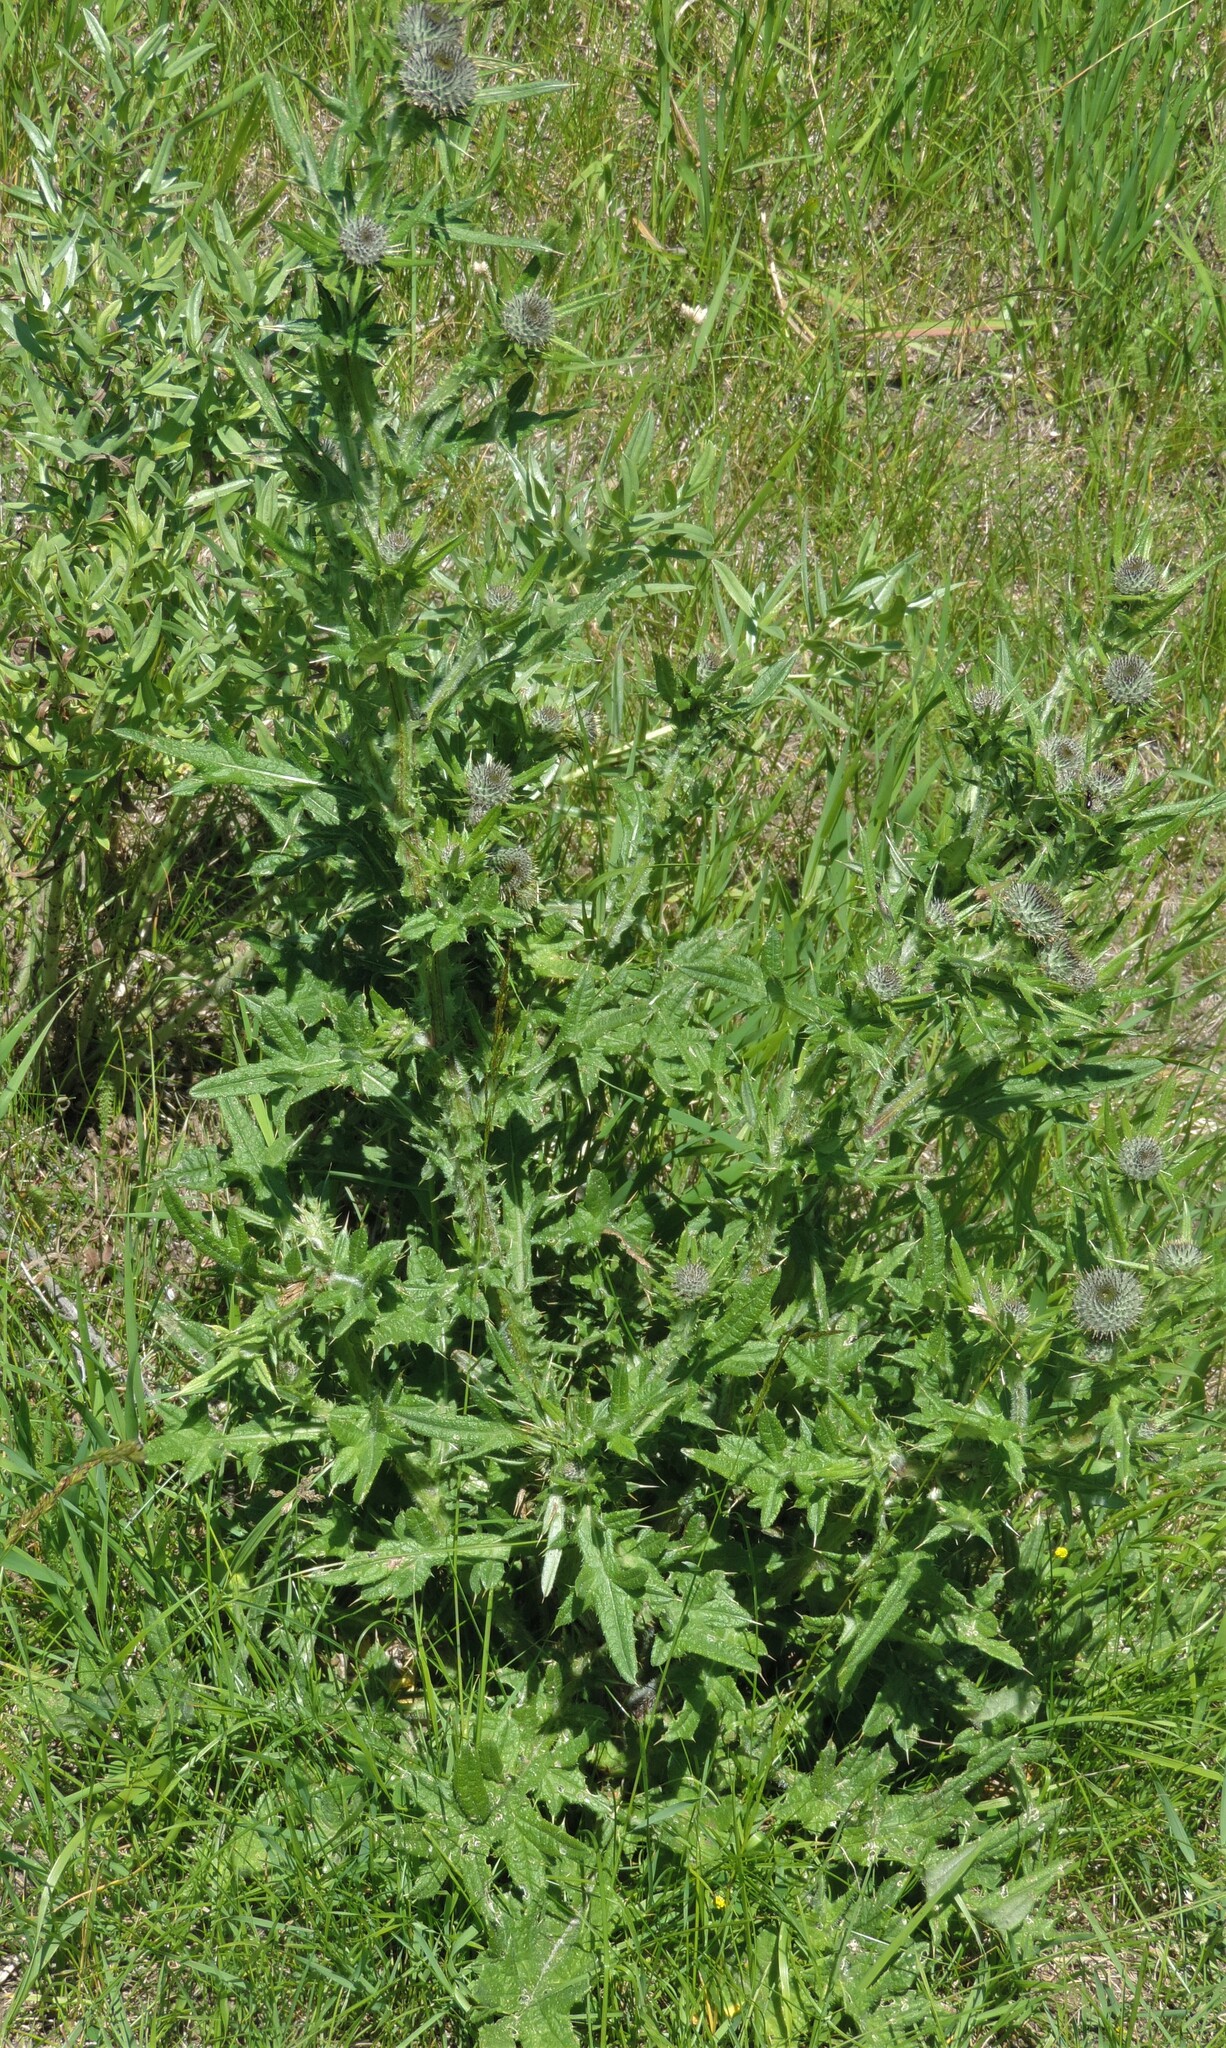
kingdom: Plantae
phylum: Tracheophyta
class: Magnoliopsida
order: Asterales
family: Asteraceae
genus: Cirsium
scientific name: Cirsium vulgare
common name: Bull thistle
